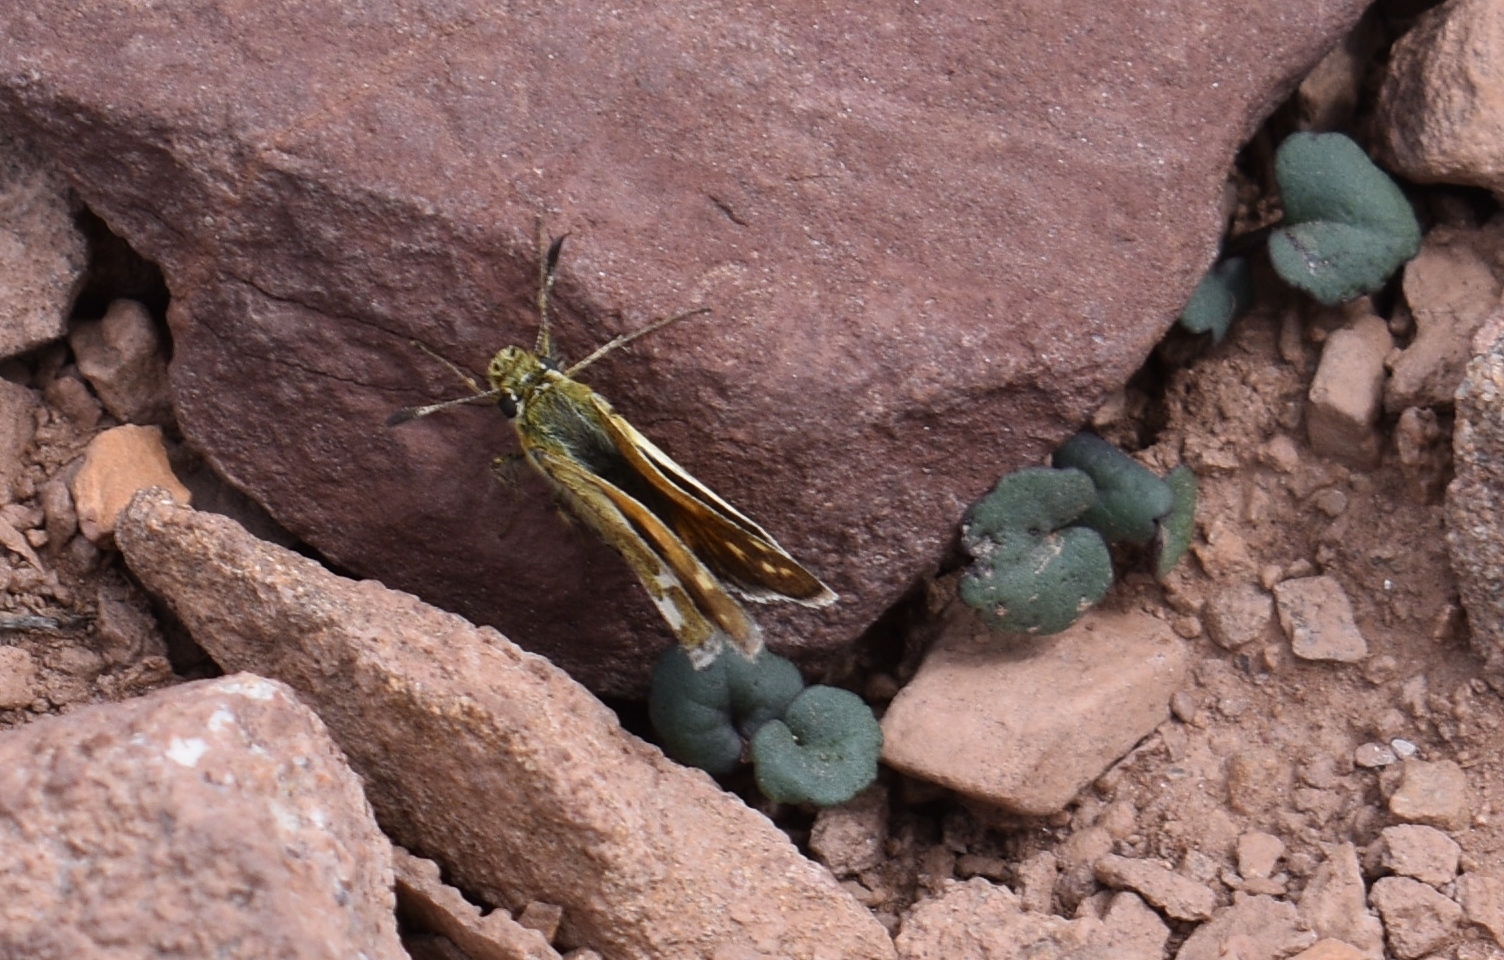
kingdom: Plantae
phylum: Tracheophyta
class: Magnoliopsida
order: Asterales
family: Asteraceae
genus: Packera
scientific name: Packera porteri
